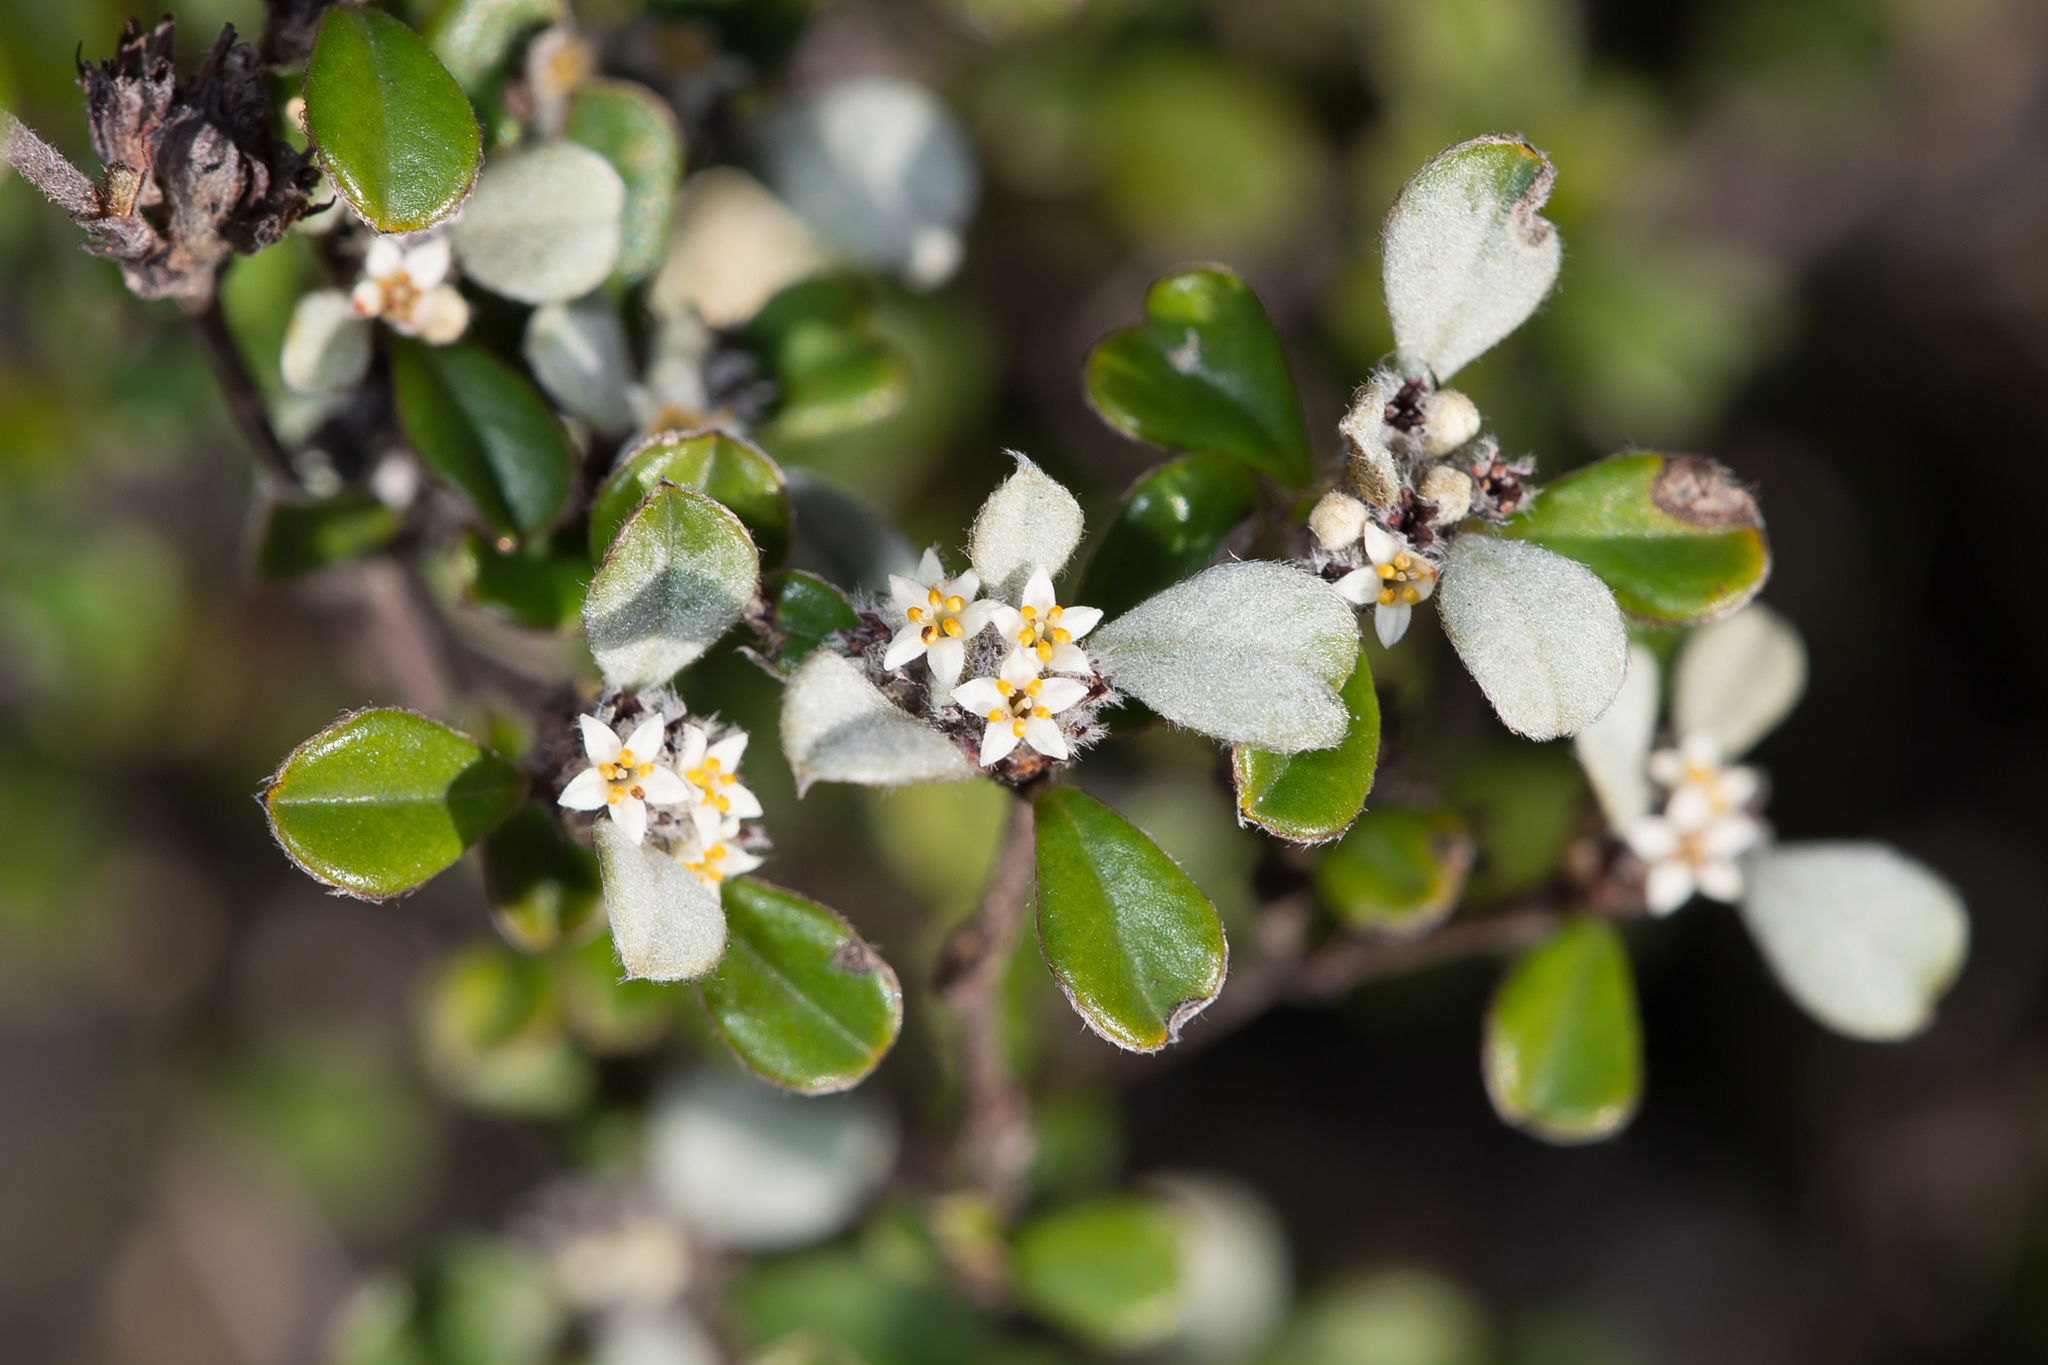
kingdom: Plantae
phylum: Tracheophyta
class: Magnoliopsida
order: Rosales
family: Rhamnaceae
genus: Cryptandra
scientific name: Cryptandra leucophracta
